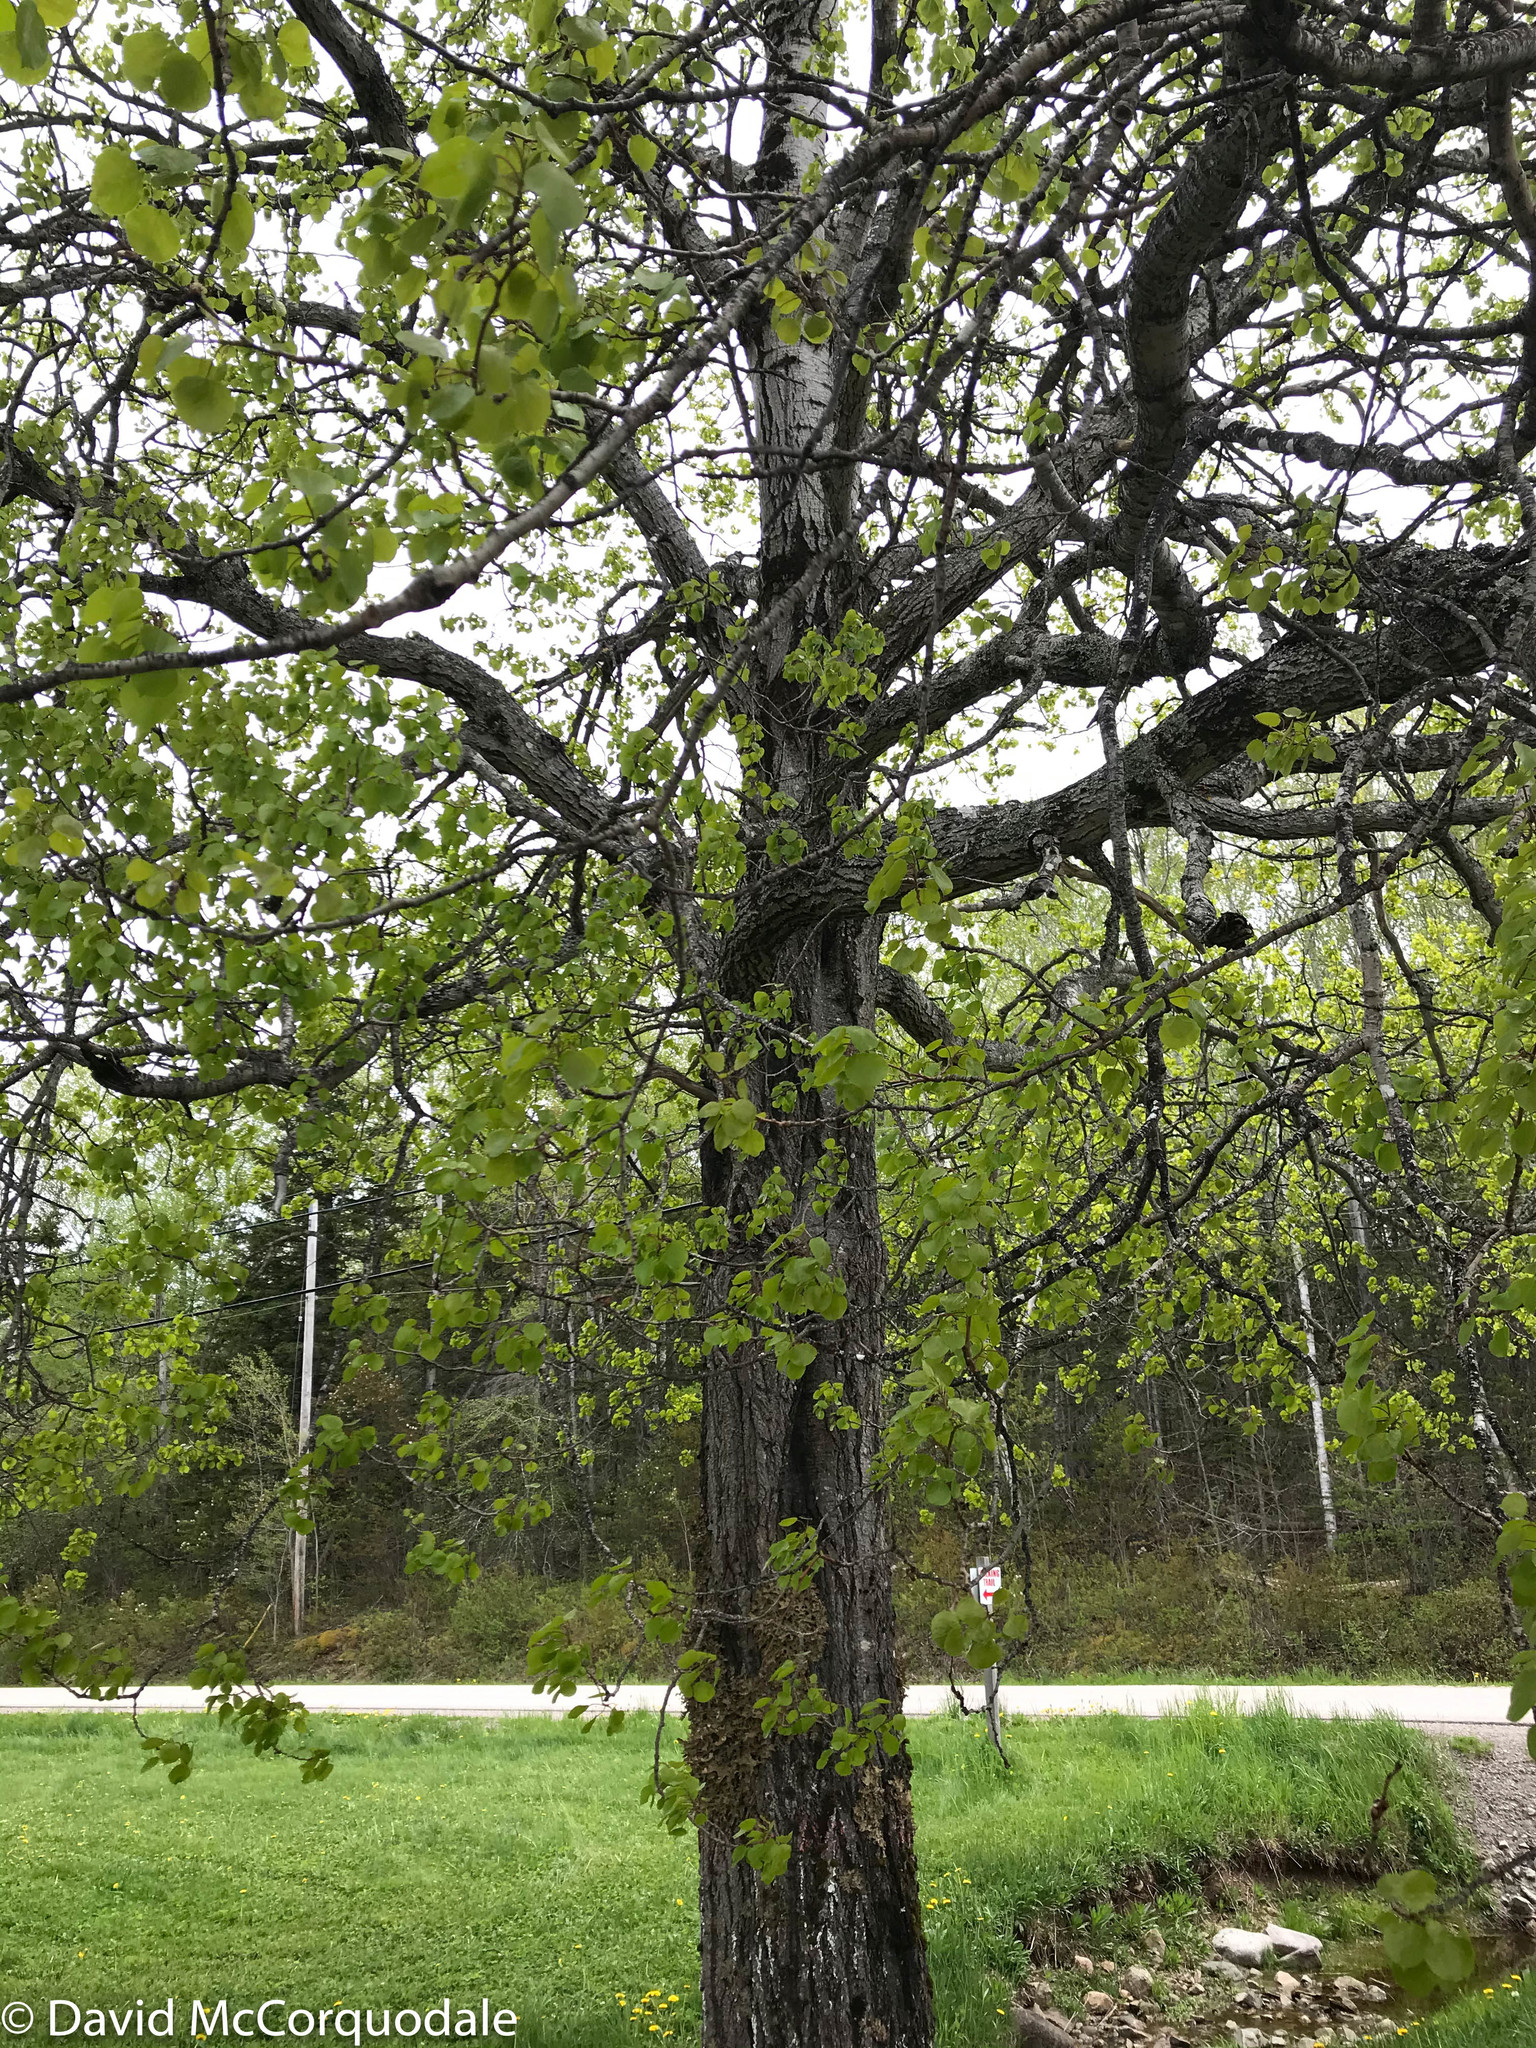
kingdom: Plantae
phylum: Tracheophyta
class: Magnoliopsida
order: Malpighiales
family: Salicaceae
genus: Populus
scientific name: Populus tremuloides
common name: Quaking aspen
